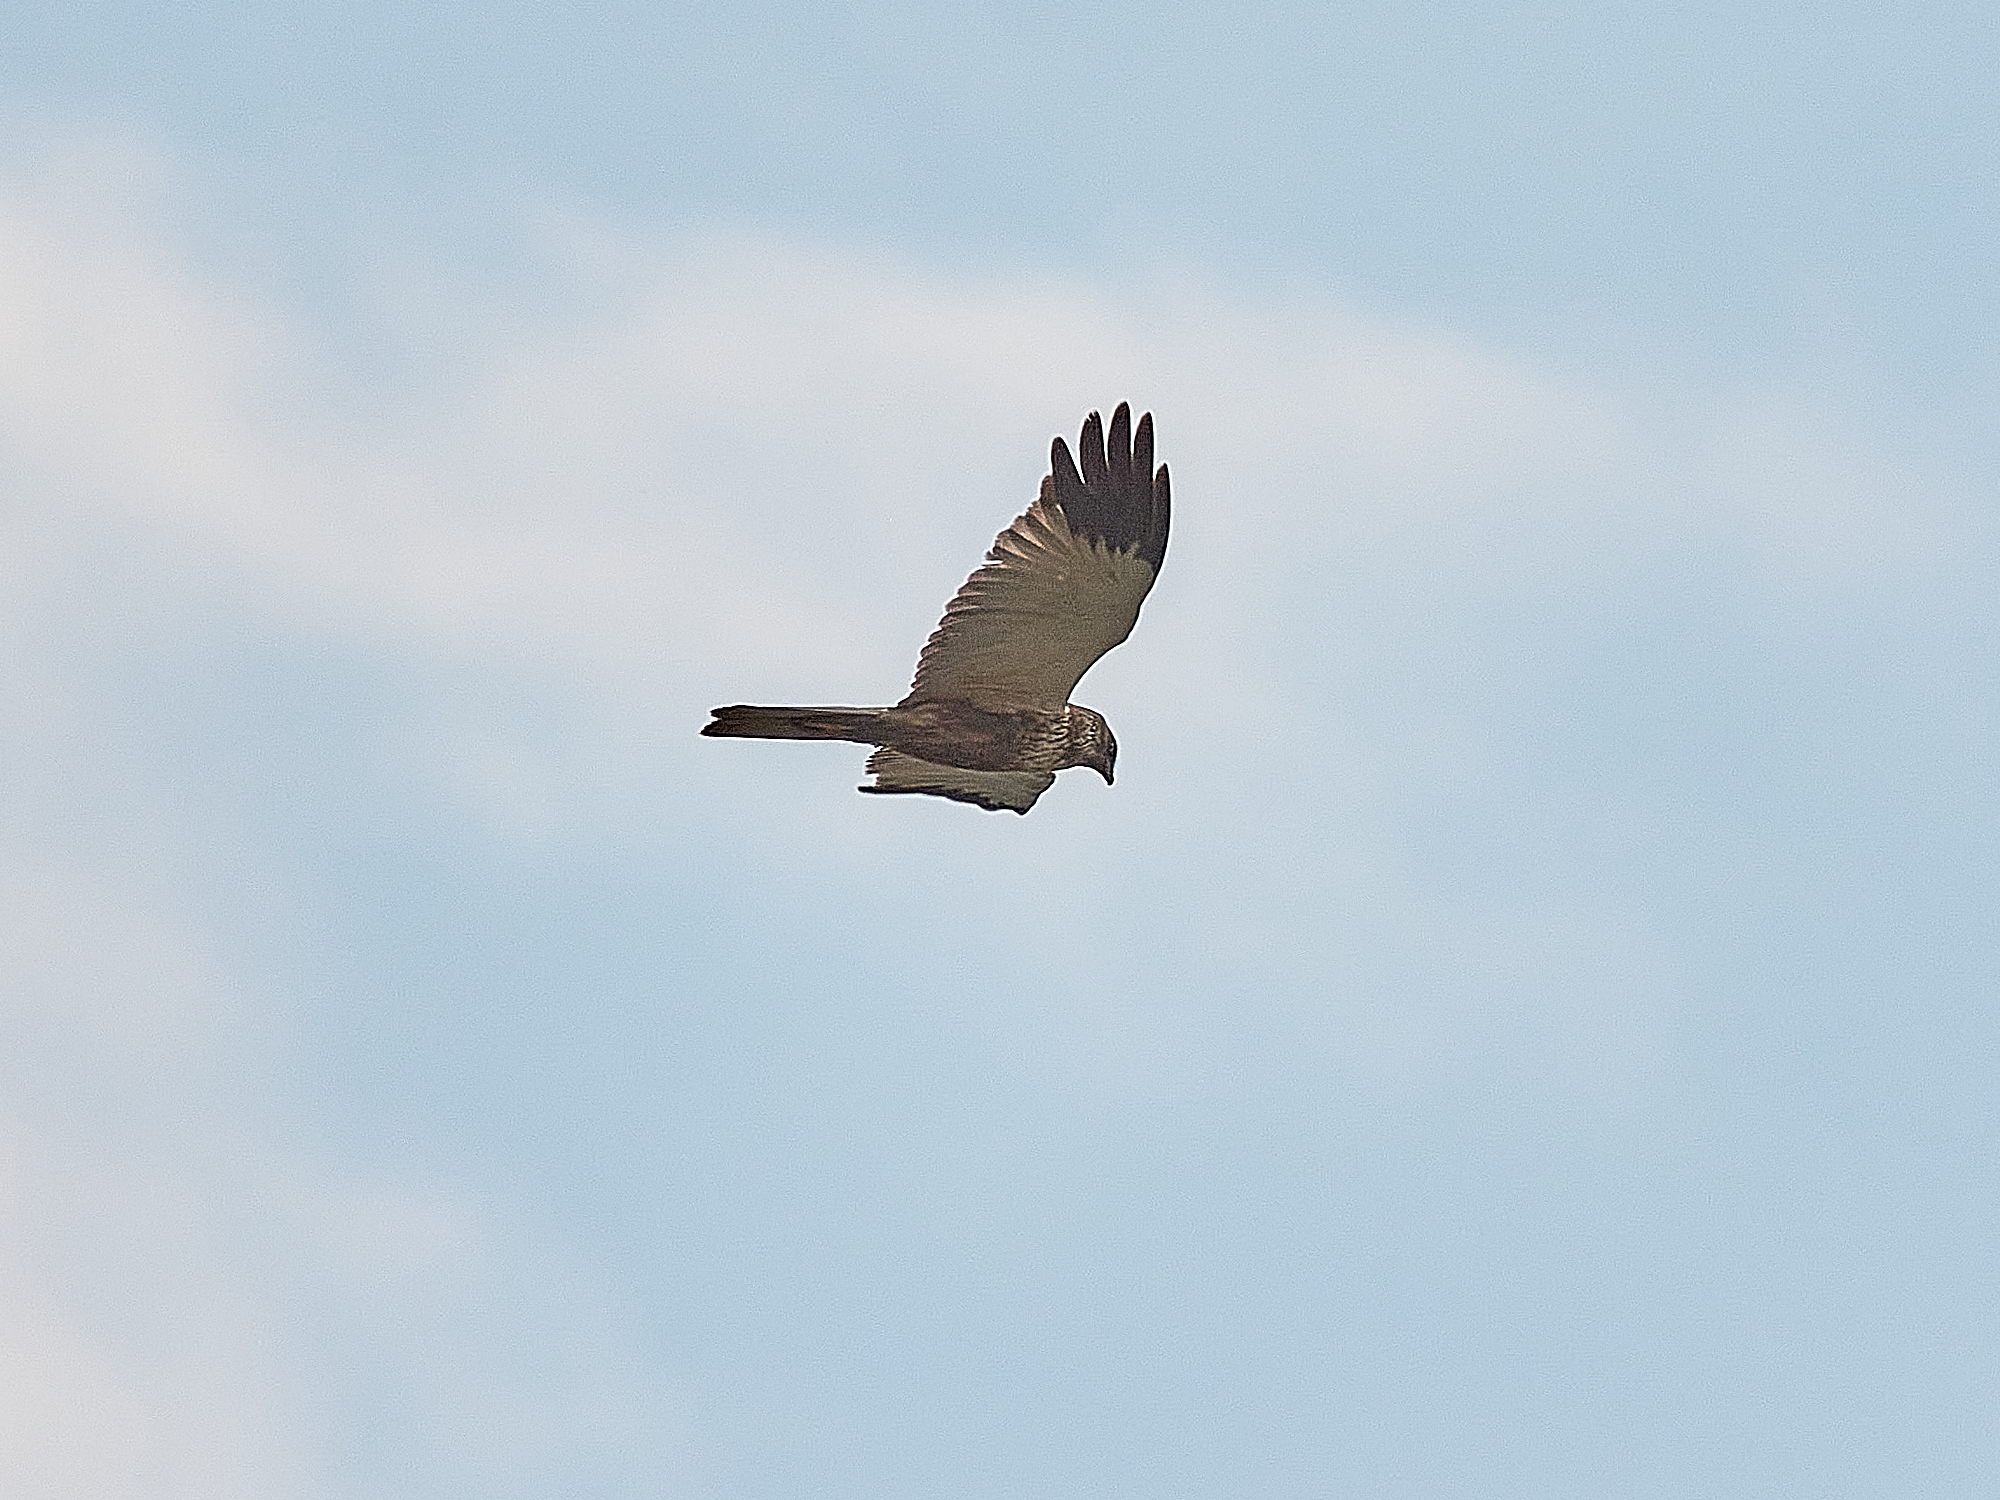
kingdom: Animalia
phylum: Chordata
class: Aves
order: Accipitriformes
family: Accipitridae
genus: Circus
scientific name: Circus aeruginosus
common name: Western marsh harrier
